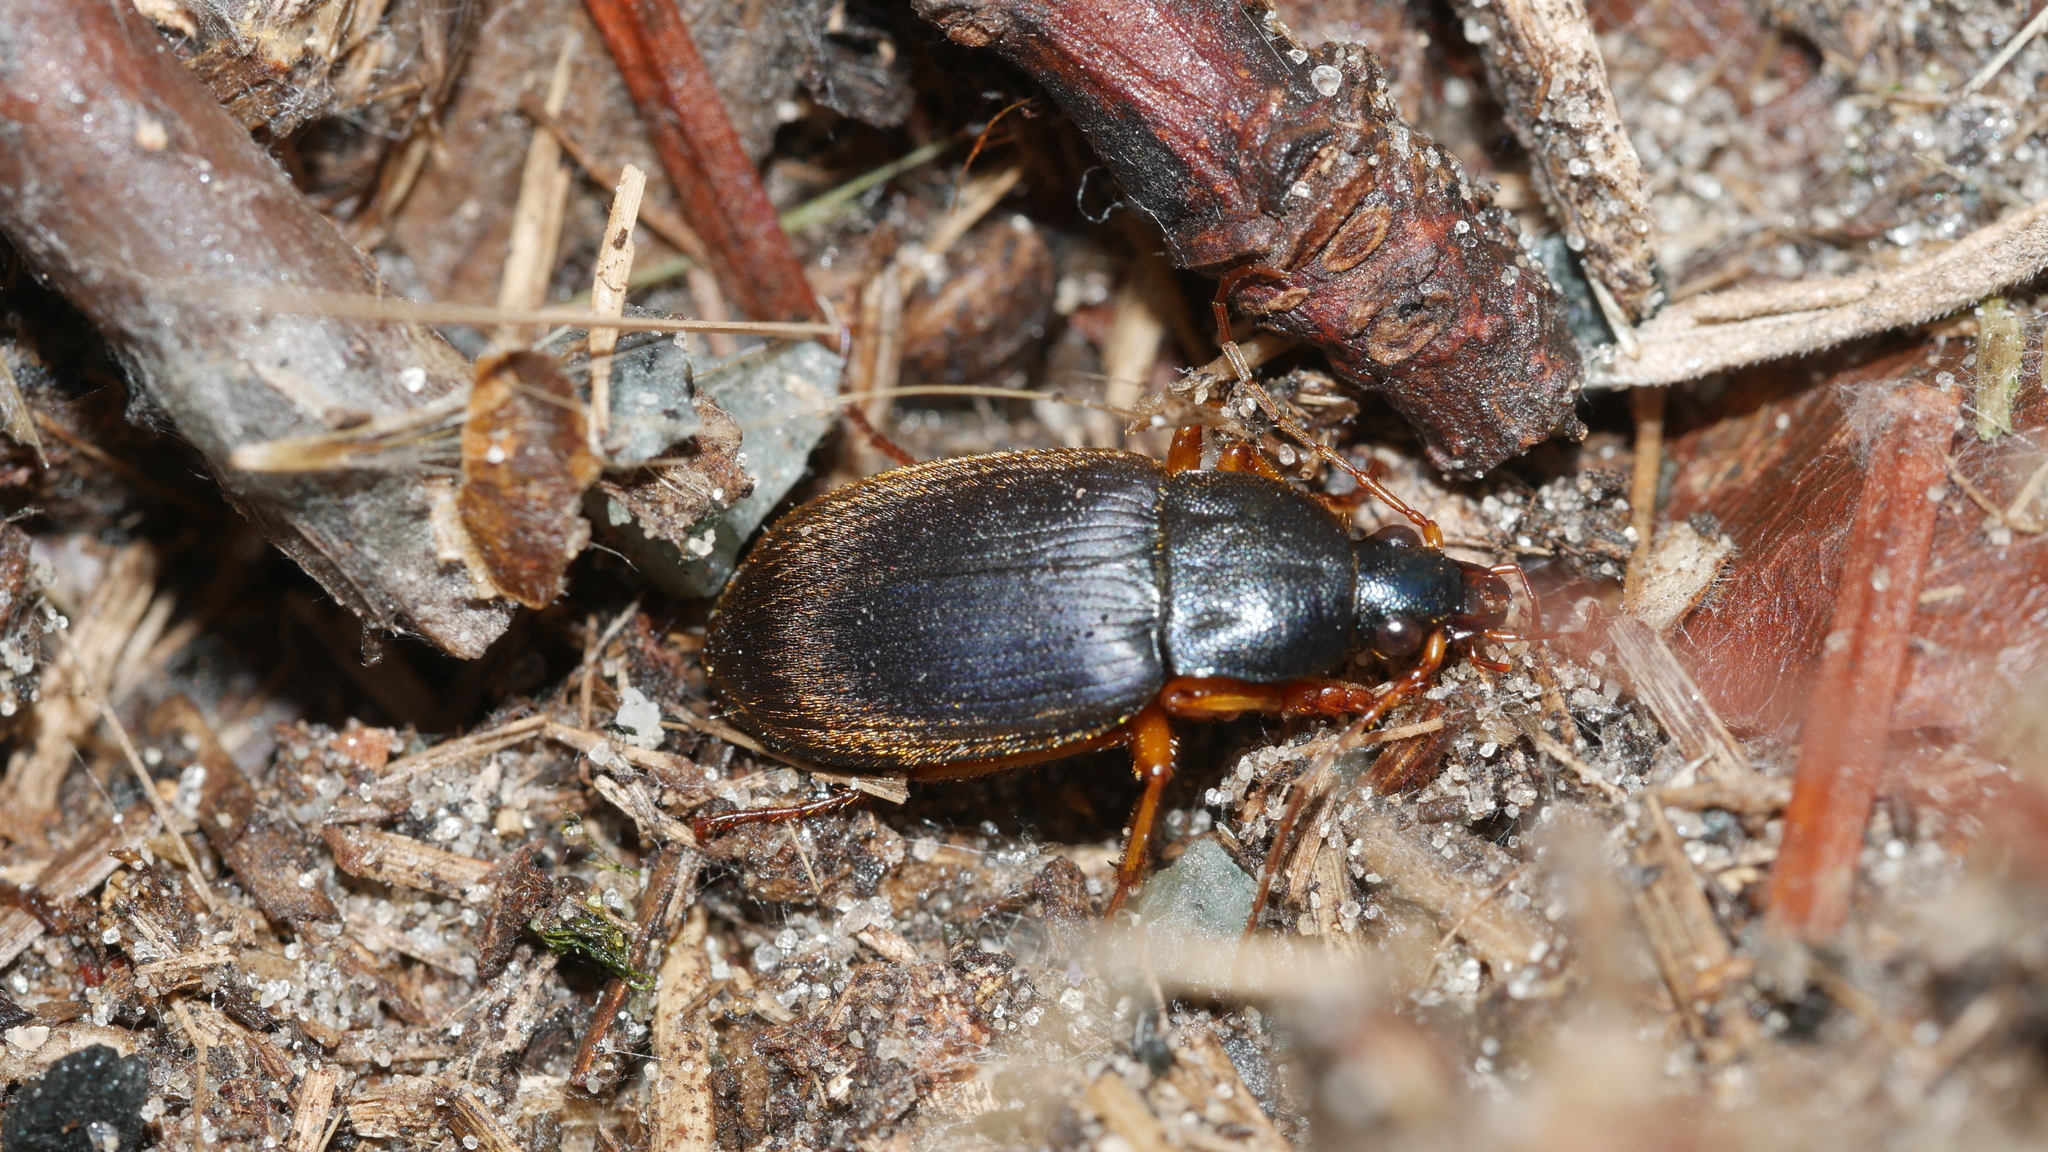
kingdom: Animalia
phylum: Arthropoda
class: Insecta
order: Coleoptera
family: Carabidae
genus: Chlaenius
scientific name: Chlaenius laticollis
